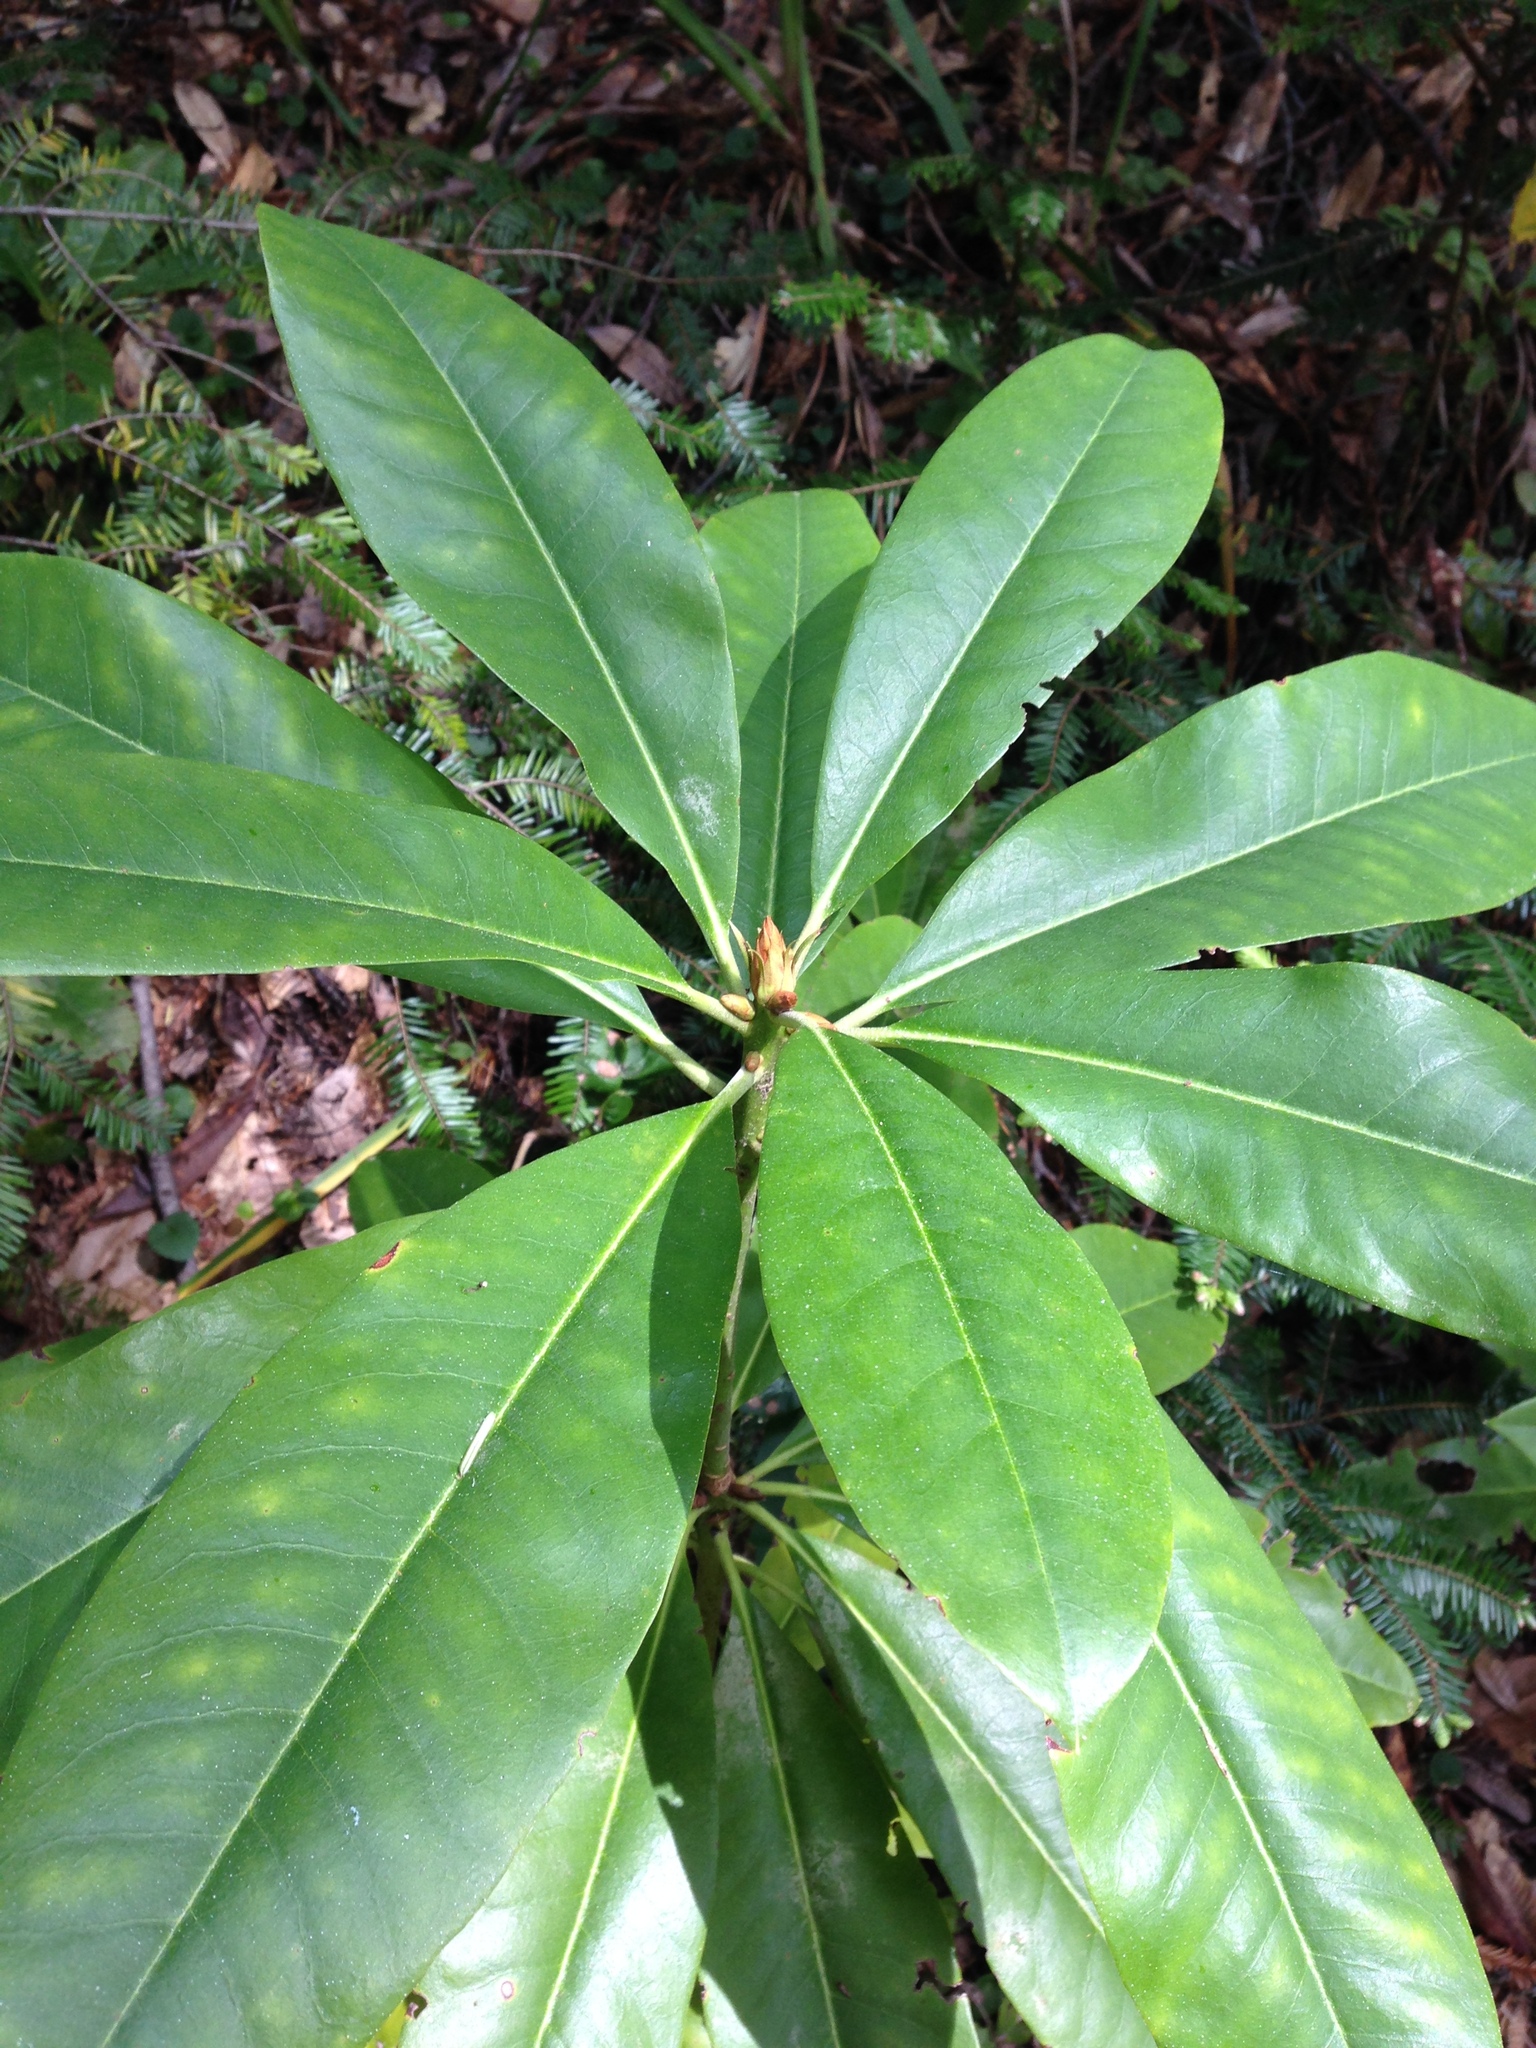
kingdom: Plantae
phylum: Tracheophyta
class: Magnoliopsida
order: Ericales
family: Ericaceae
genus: Rhododendron
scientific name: Rhododendron macrophyllum
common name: California rose bay
